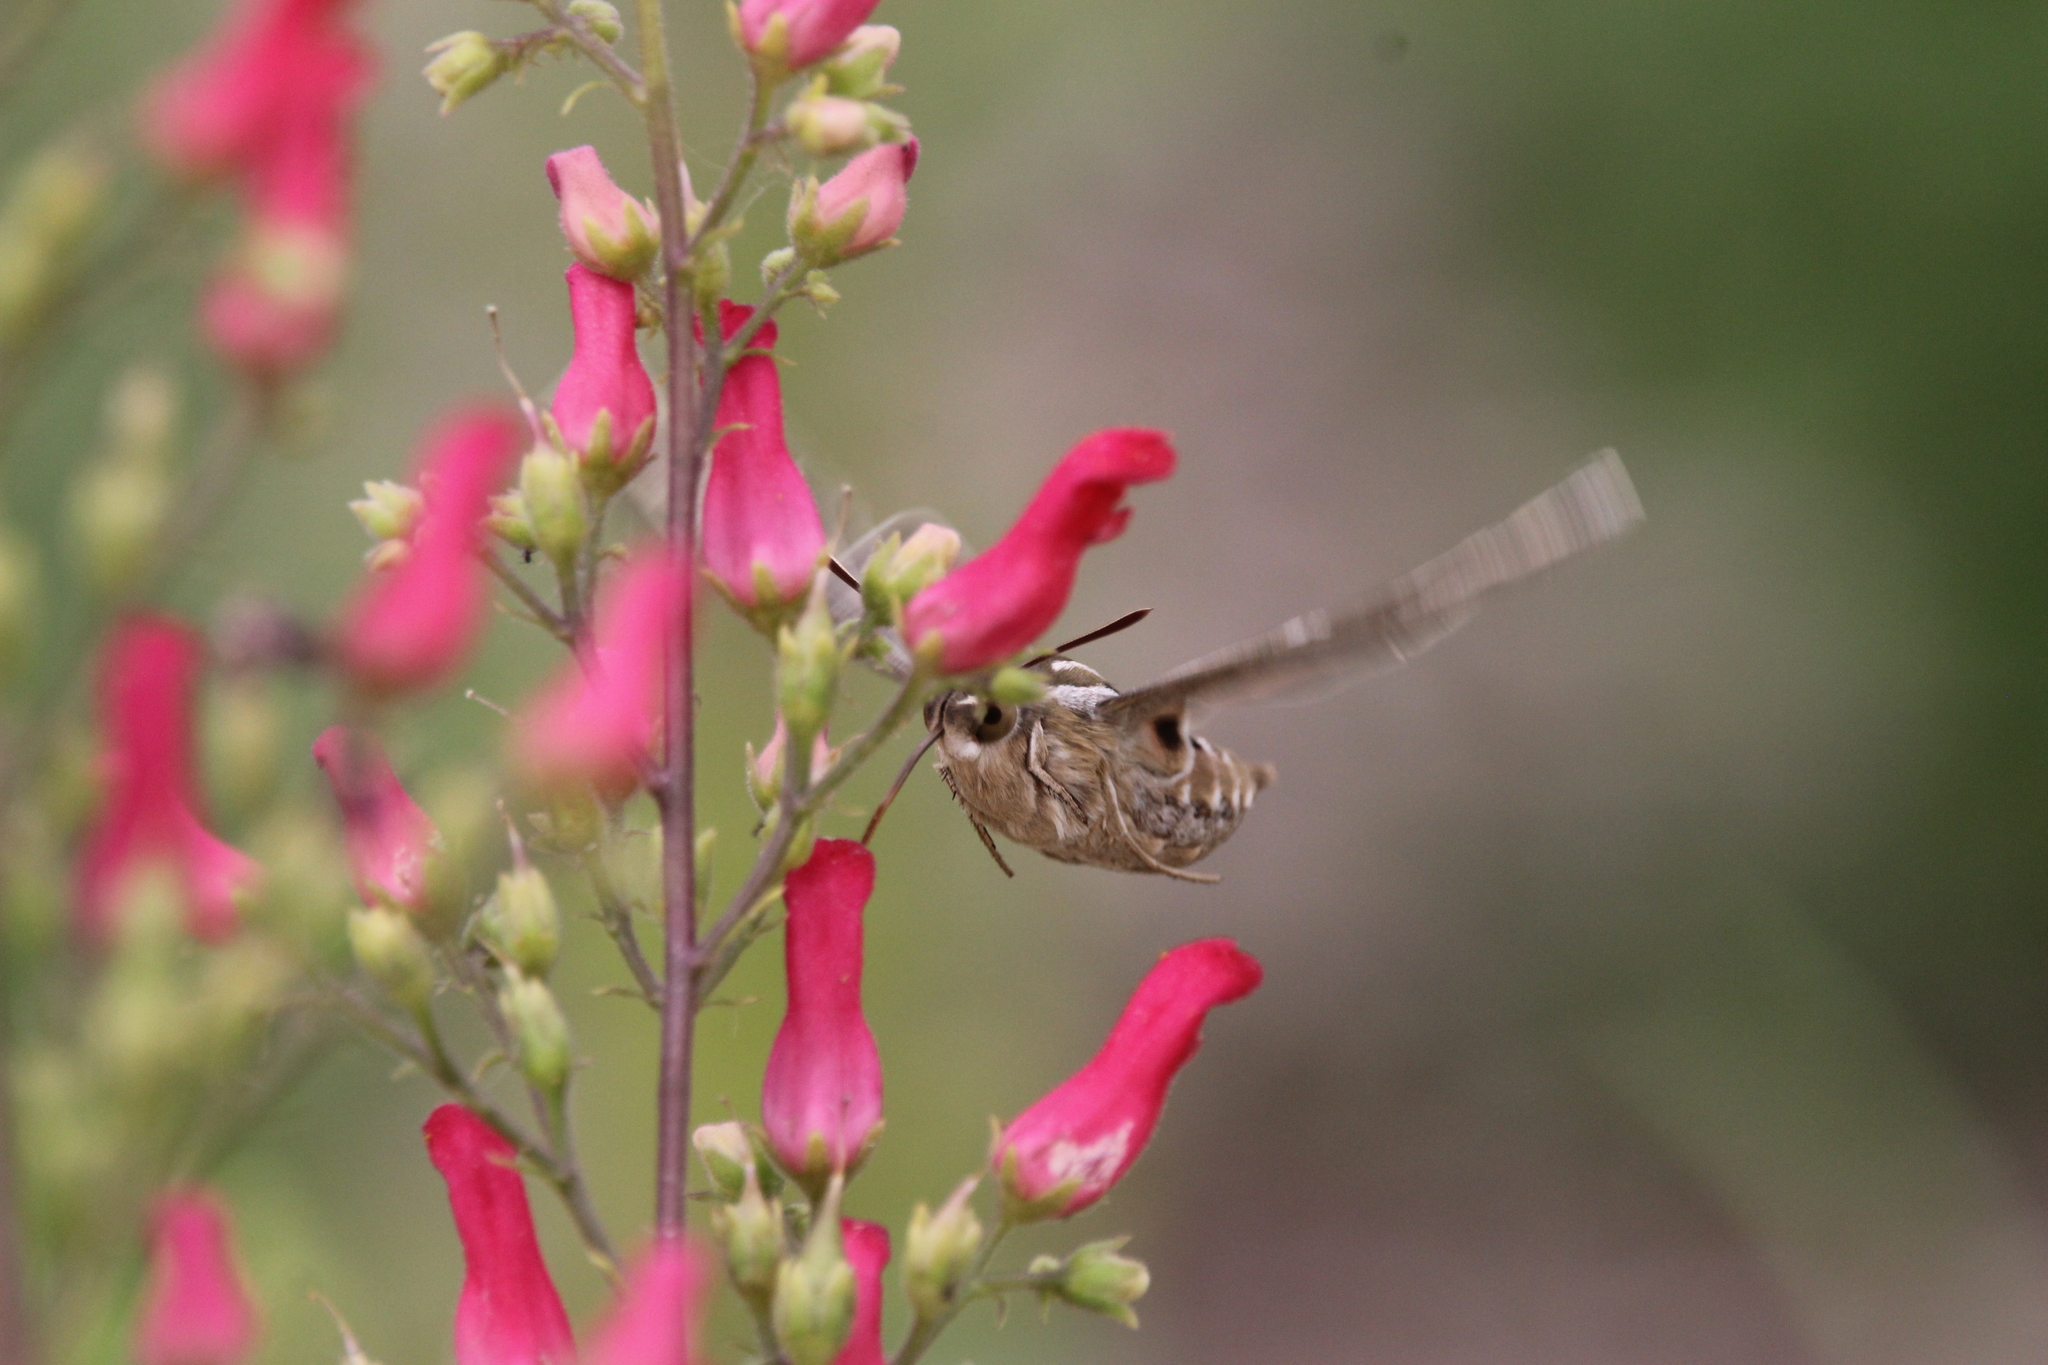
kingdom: Animalia
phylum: Arthropoda
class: Insecta
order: Lepidoptera
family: Sphingidae
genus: Hyles
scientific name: Hyles lineata
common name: White-lined sphinx
